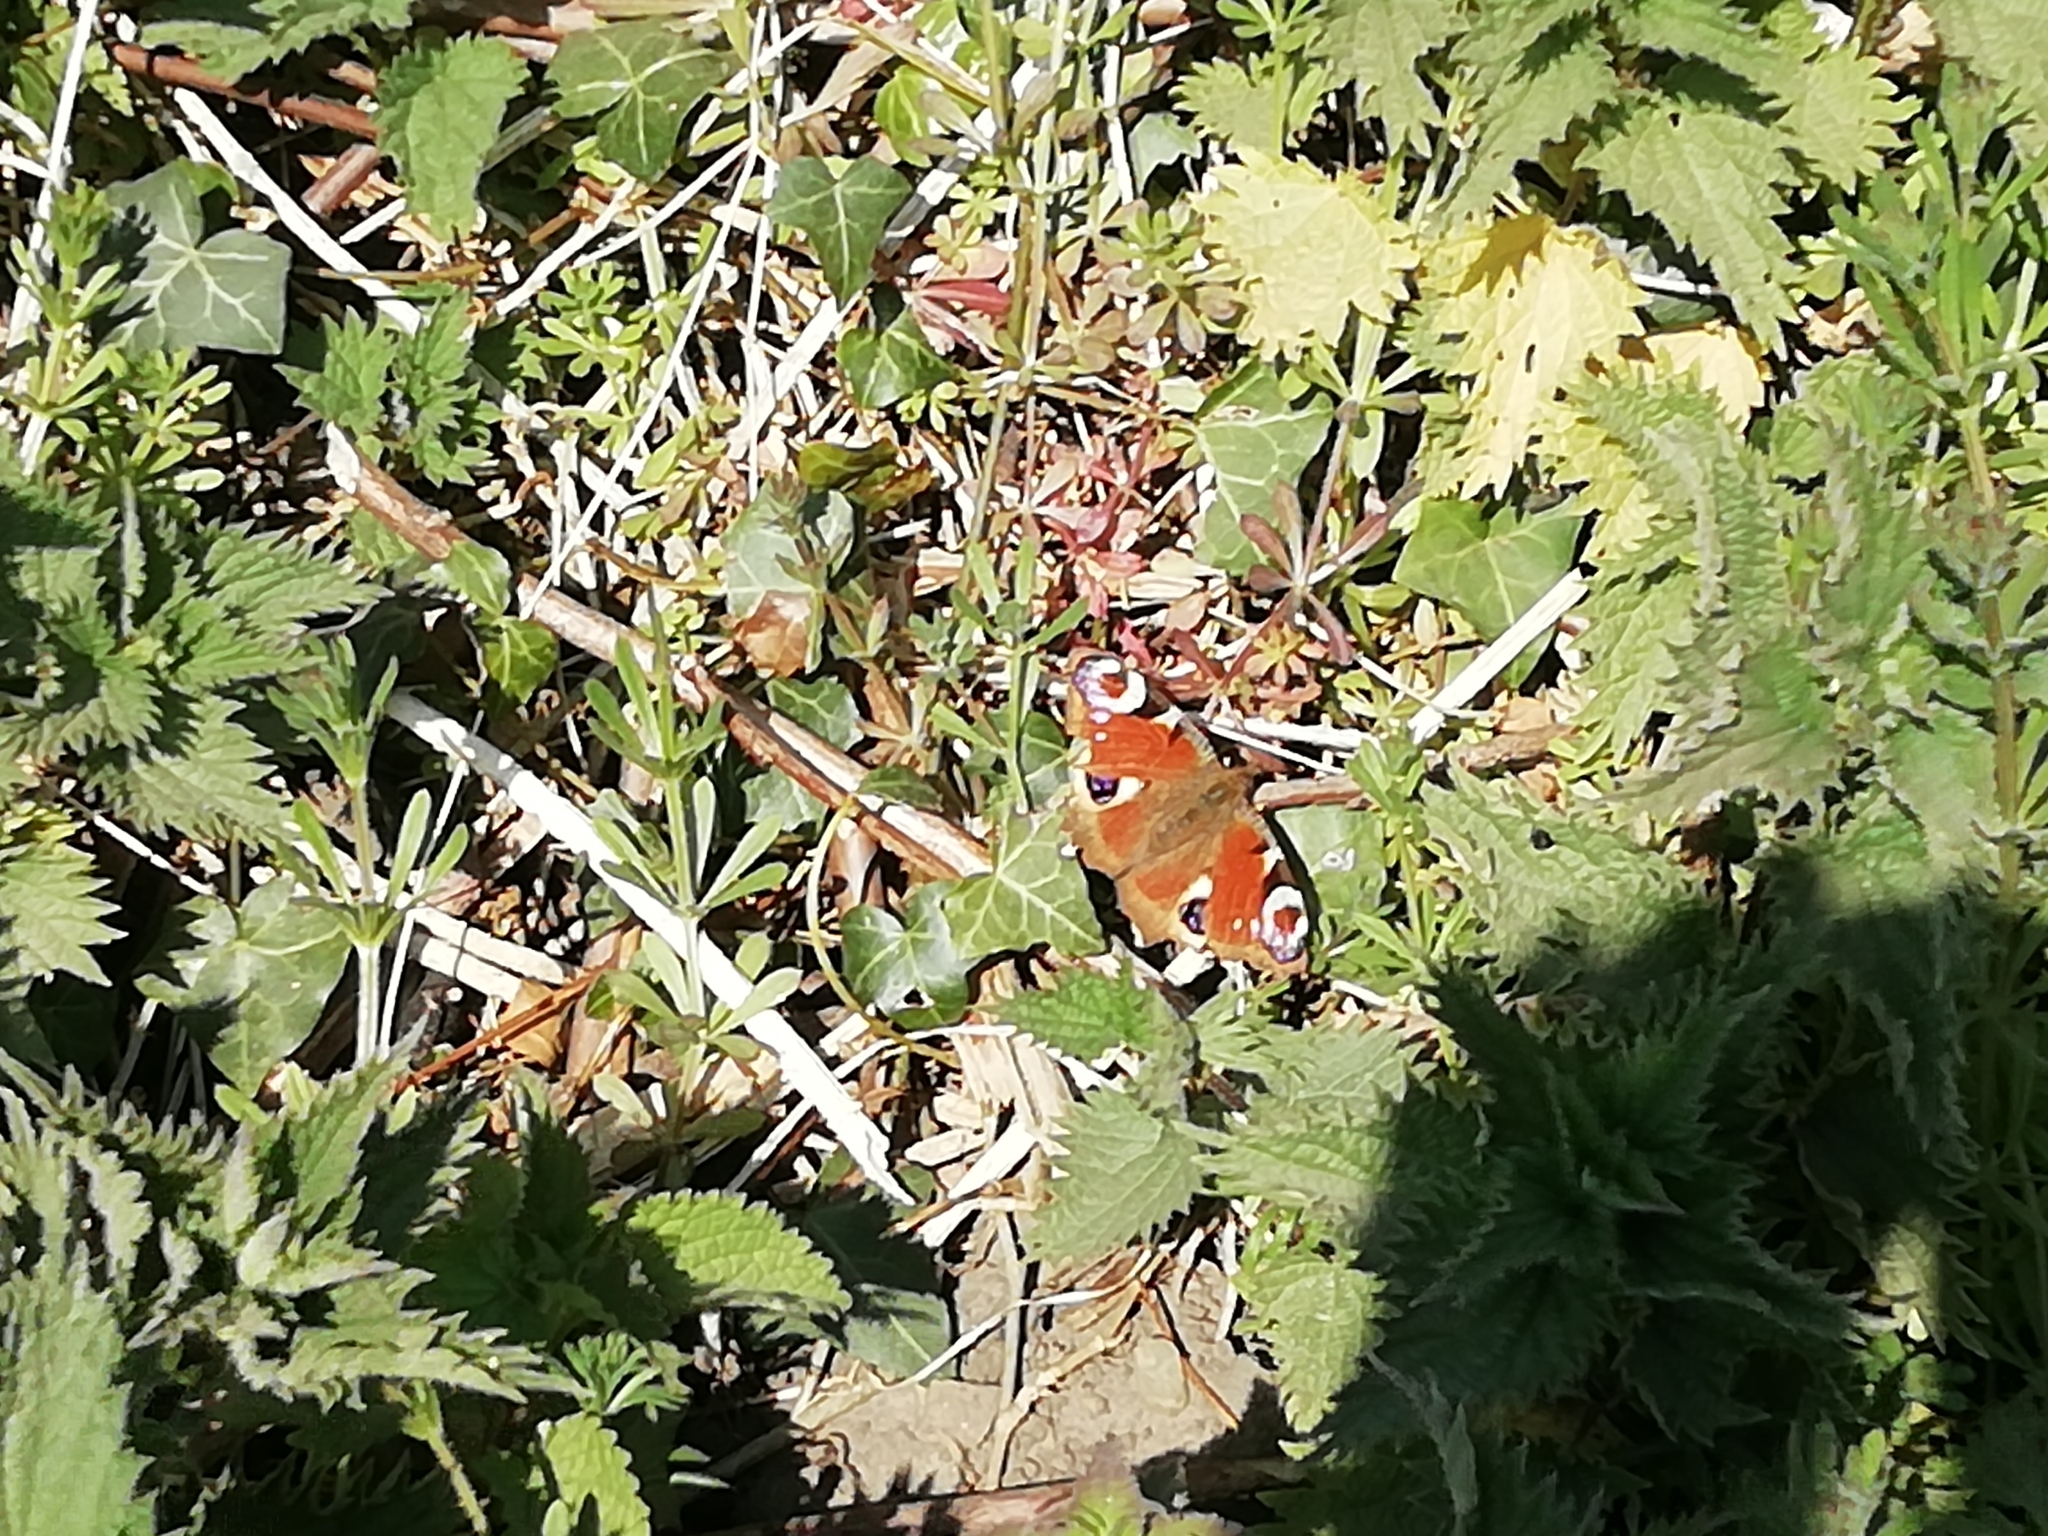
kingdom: Animalia
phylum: Arthropoda
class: Insecta
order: Lepidoptera
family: Nymphalidae
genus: Aglais
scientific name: Aglais io
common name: Peacock
